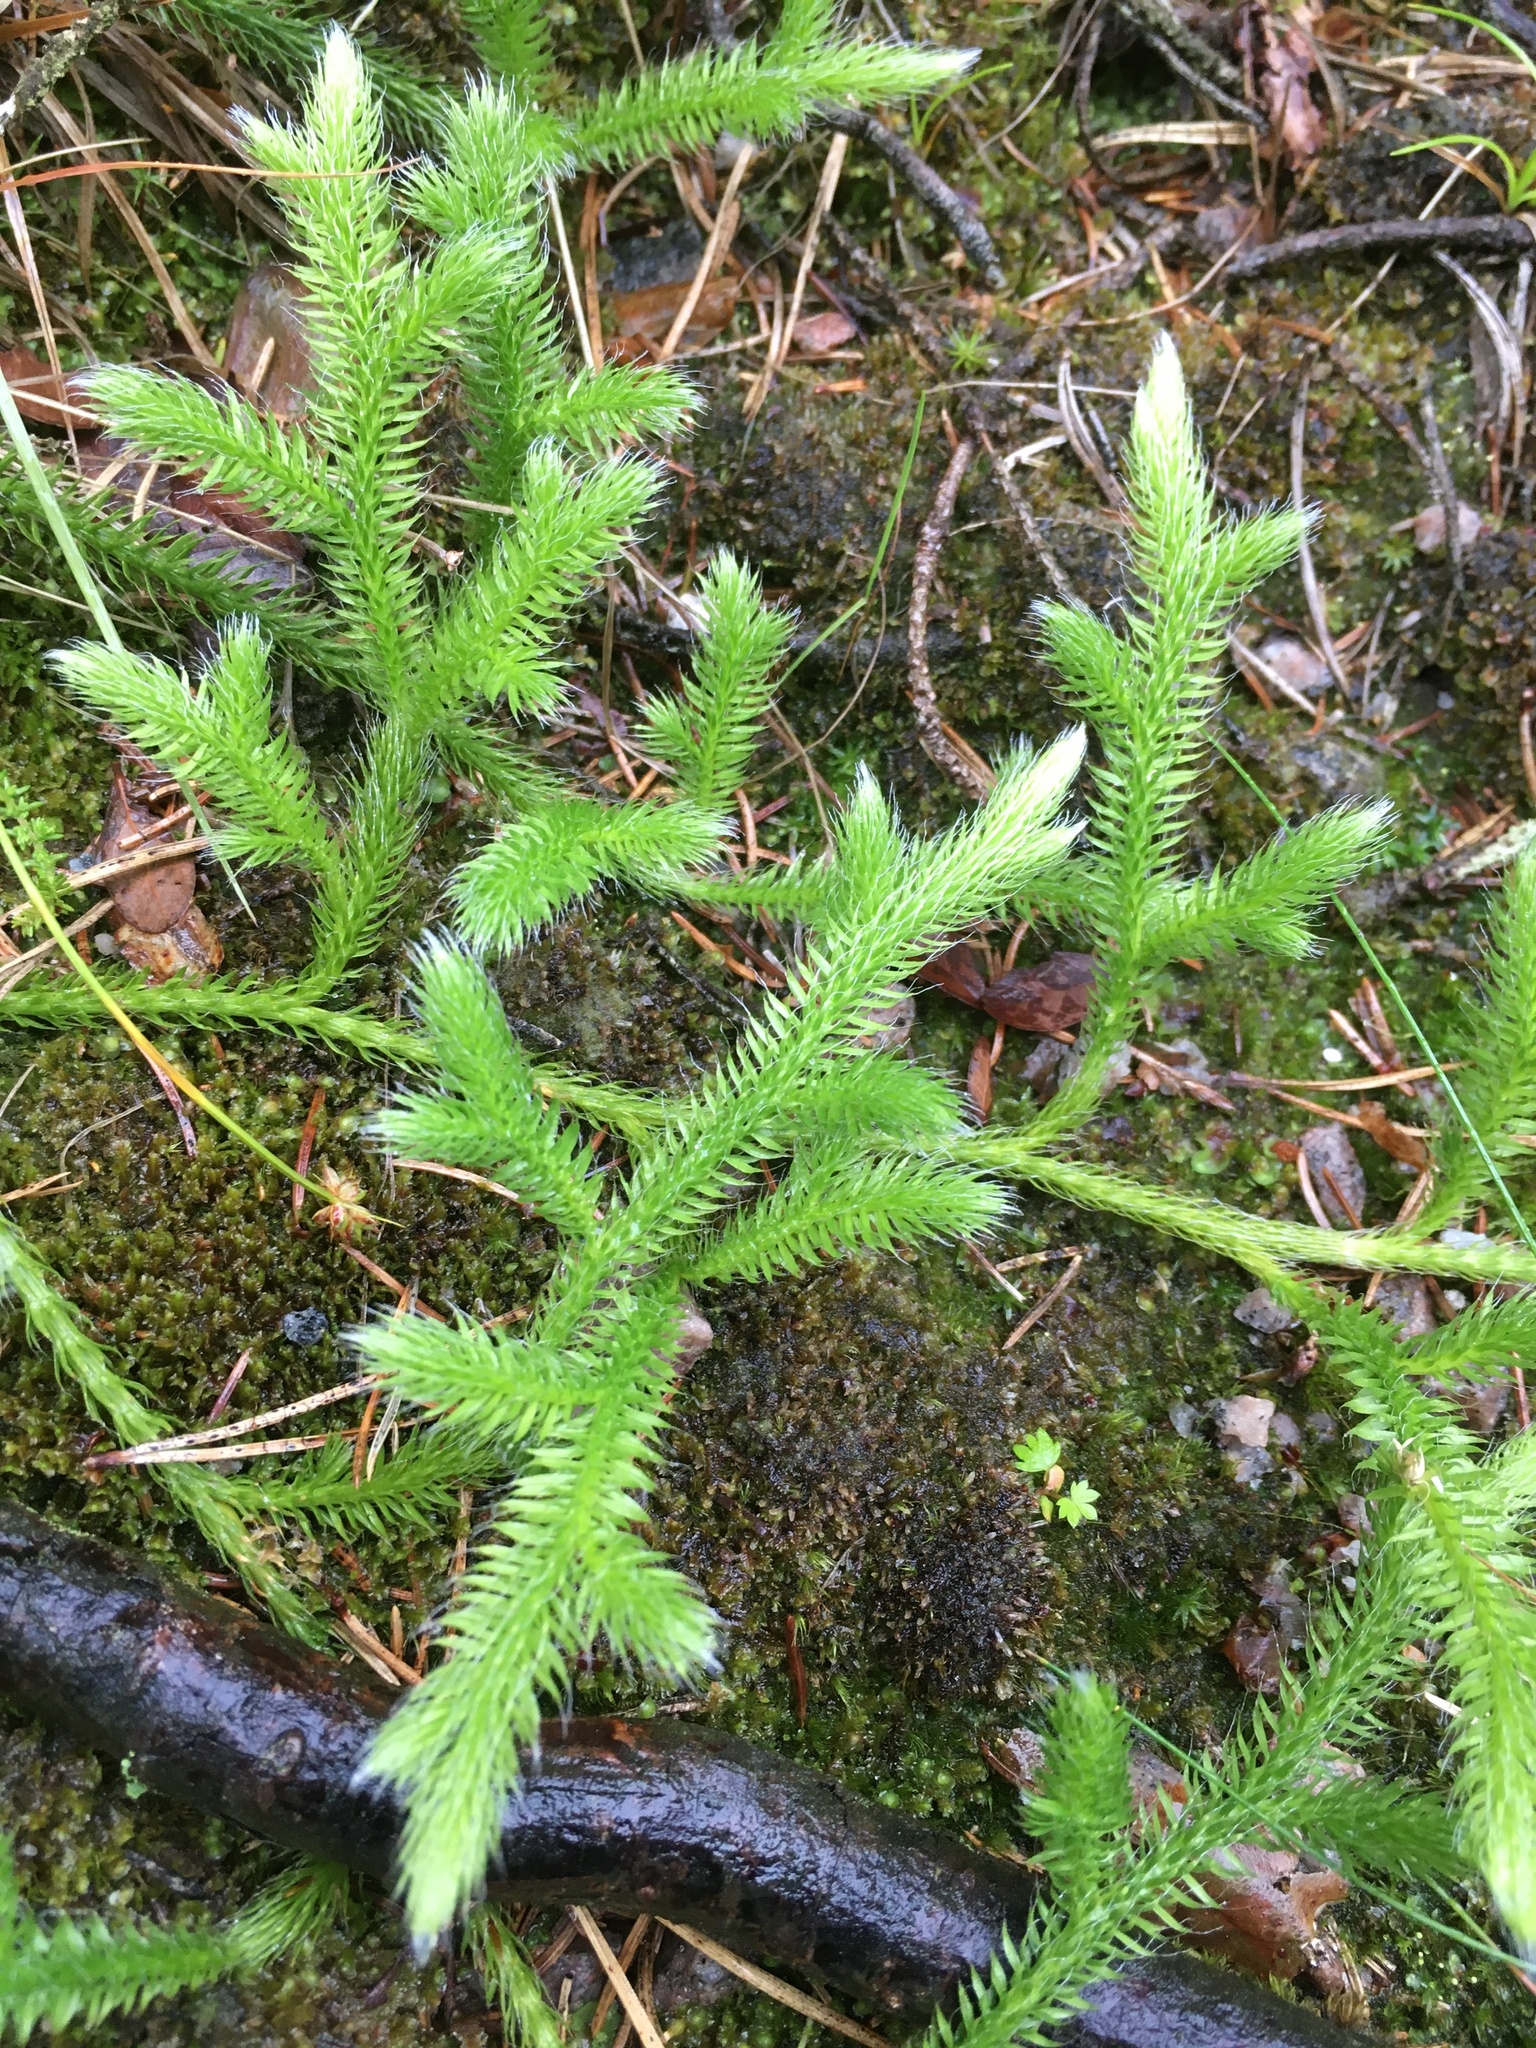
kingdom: Plantae
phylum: Tracheophyta
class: Lycopodiopsida
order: Lycopodiales
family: Lycopodiaceae
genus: Lycopodium
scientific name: Lycopodium clavatum
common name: Stag's-horn clubmoss
